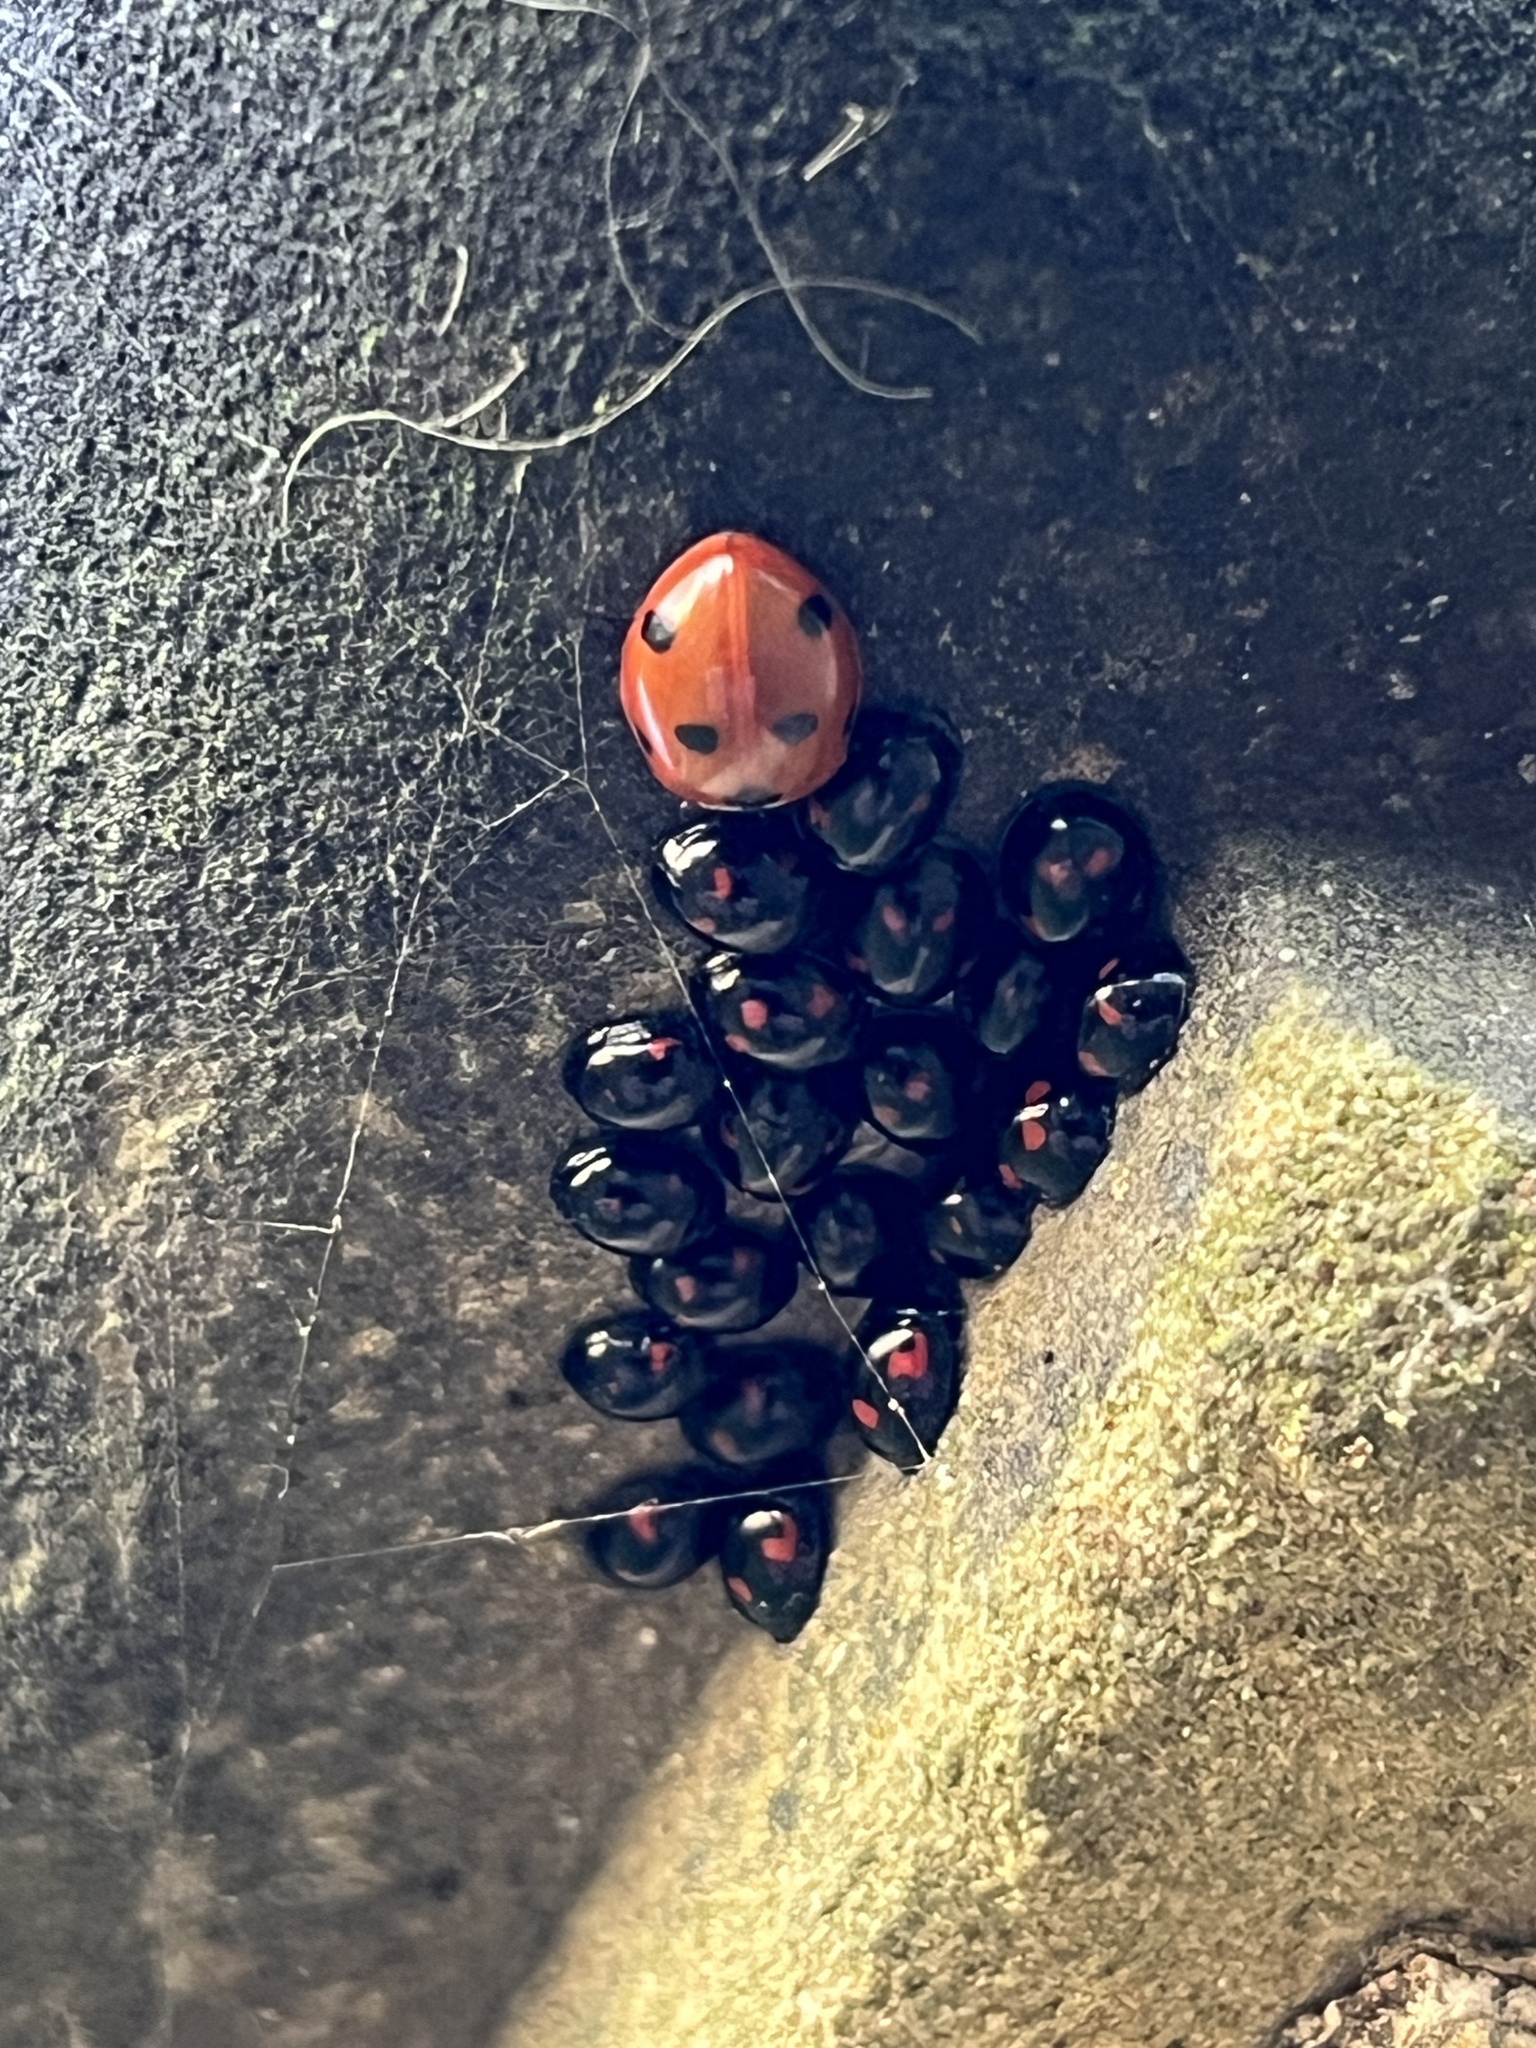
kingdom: Animalia
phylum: Arthropoda
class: Insecta
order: Coleoptera
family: Coccinellidae
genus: Brumus
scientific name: Brumus quadripustulatus
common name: Ladybird beetle
